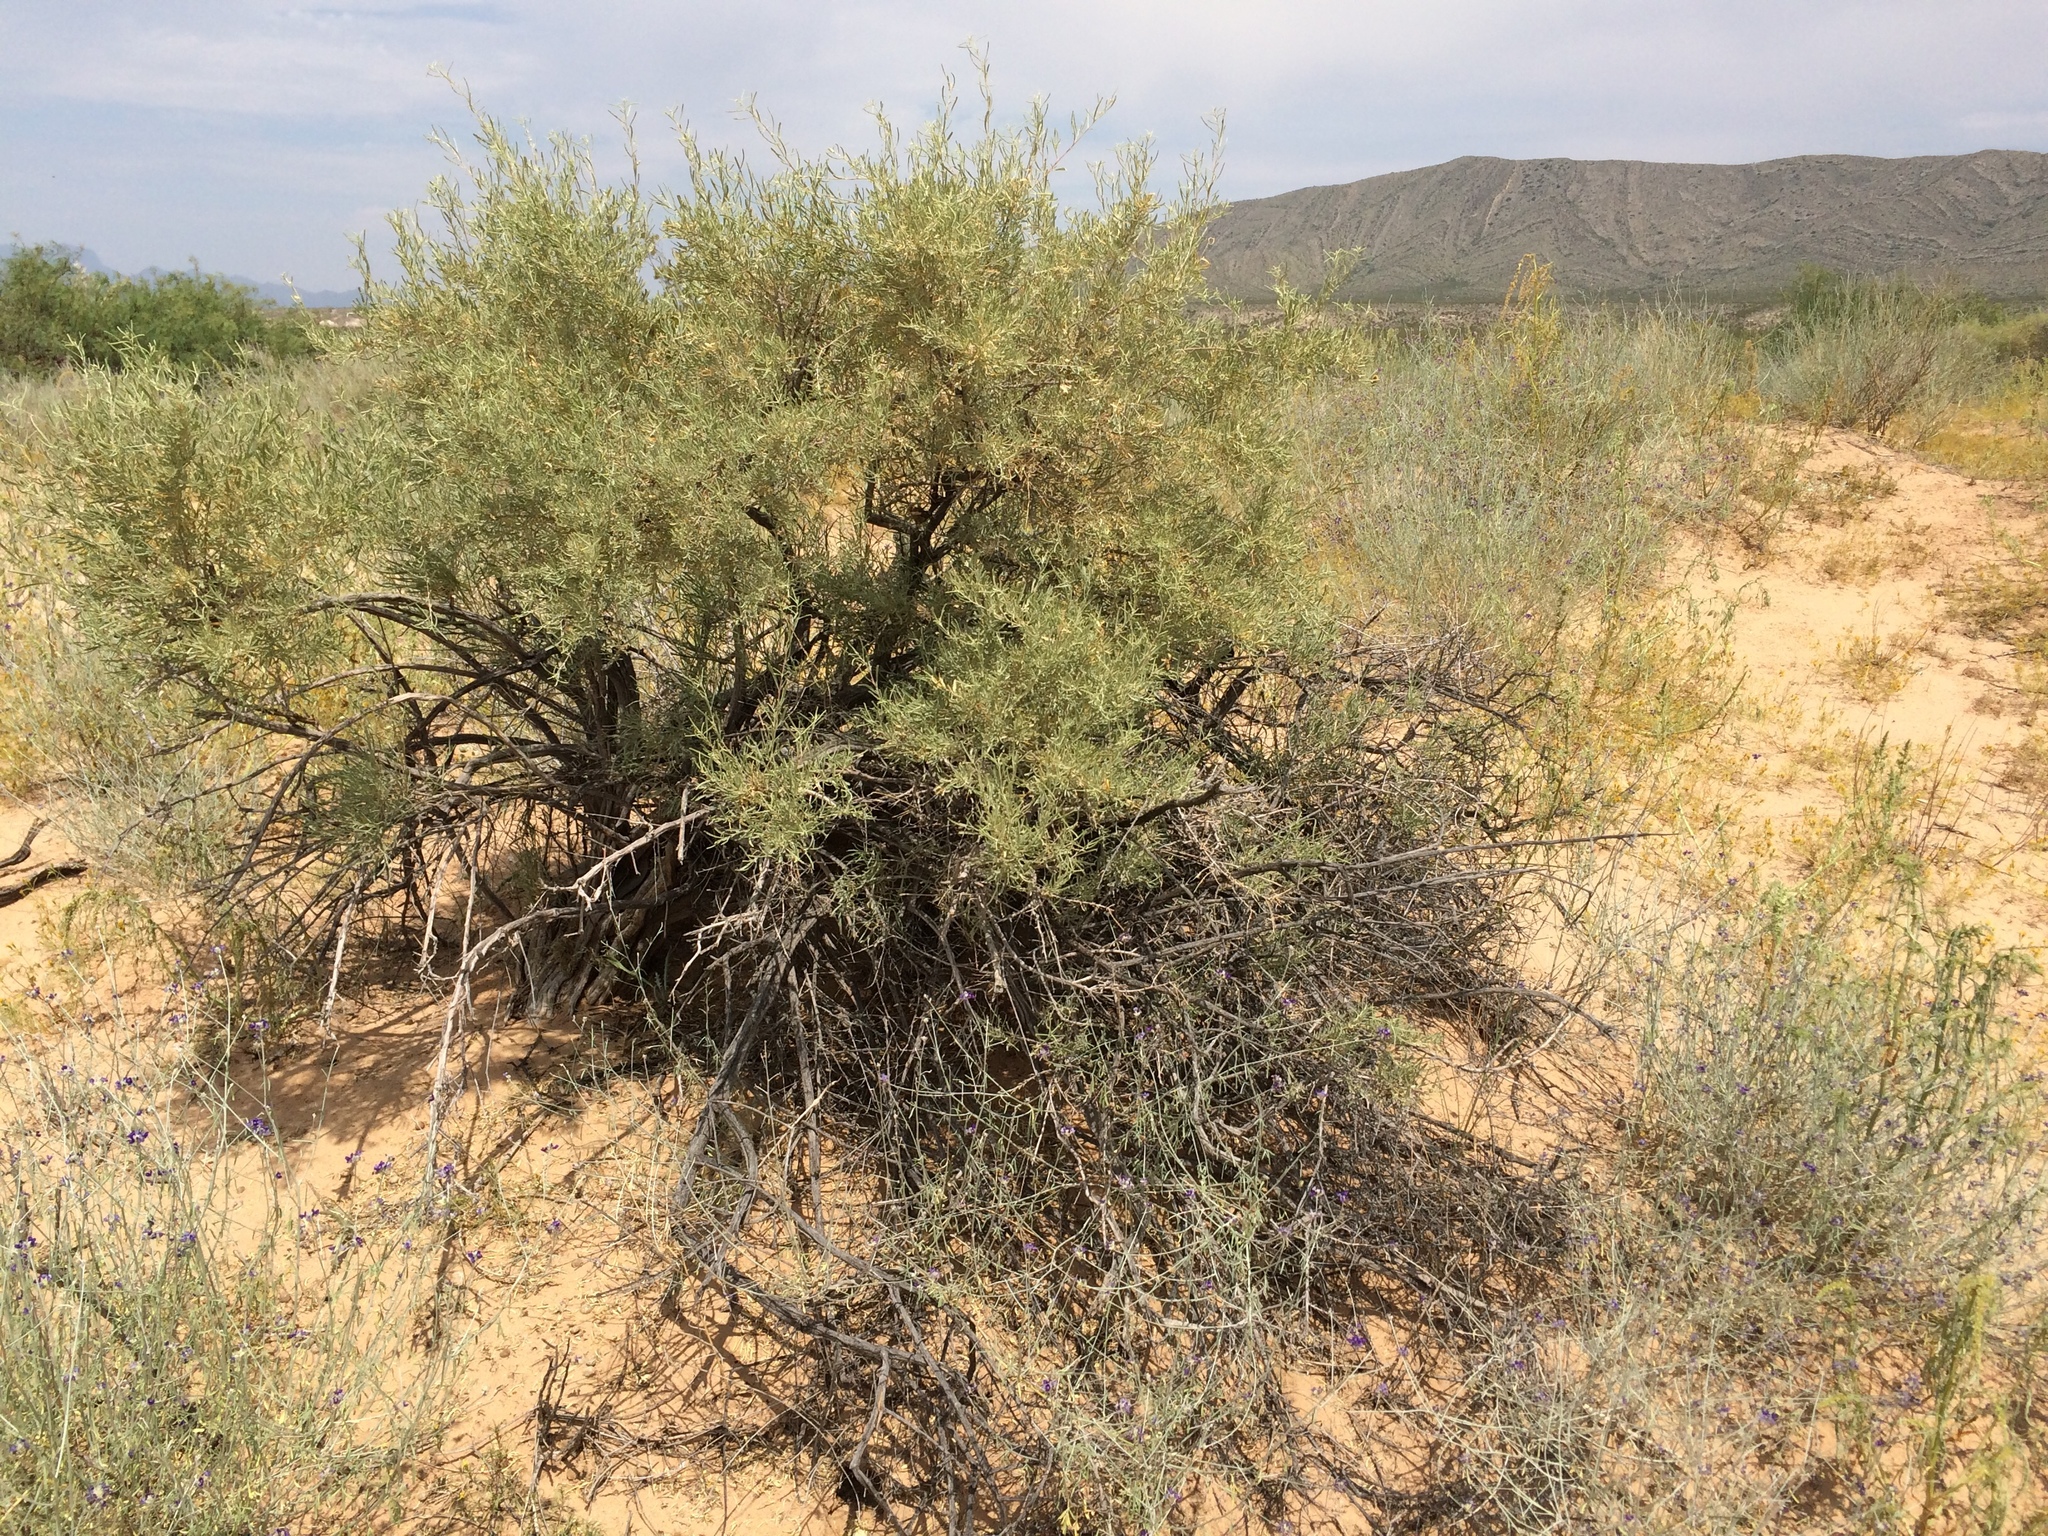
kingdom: Plantae
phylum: Tracheophyta
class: Magnoliopsida
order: Caryophyllales
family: Amaranthaceae
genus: Atriplex
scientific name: Atriplex canescens
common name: Four-wing saltbush
